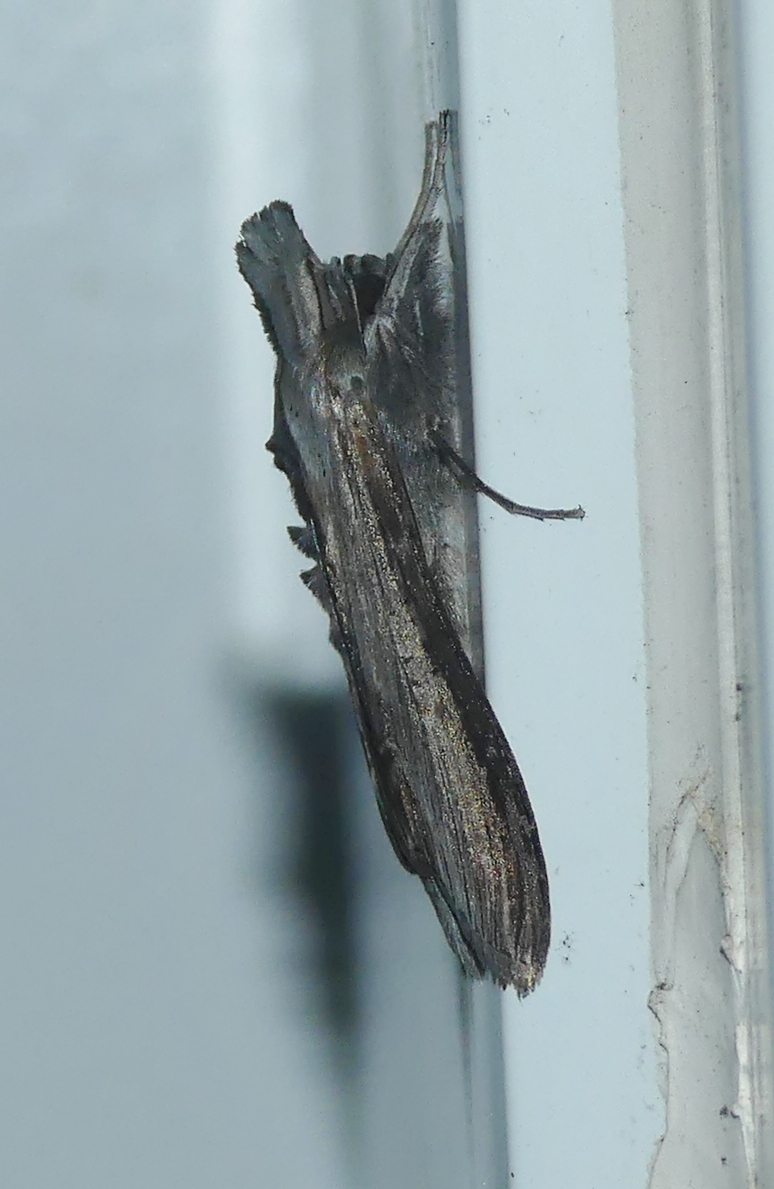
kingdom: Animalia
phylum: Arthropoda
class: Insecta
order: Lepidoptera
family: Sphingidae
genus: Sphinx
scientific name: Sphinx poecila
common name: Northern apple sphinx
